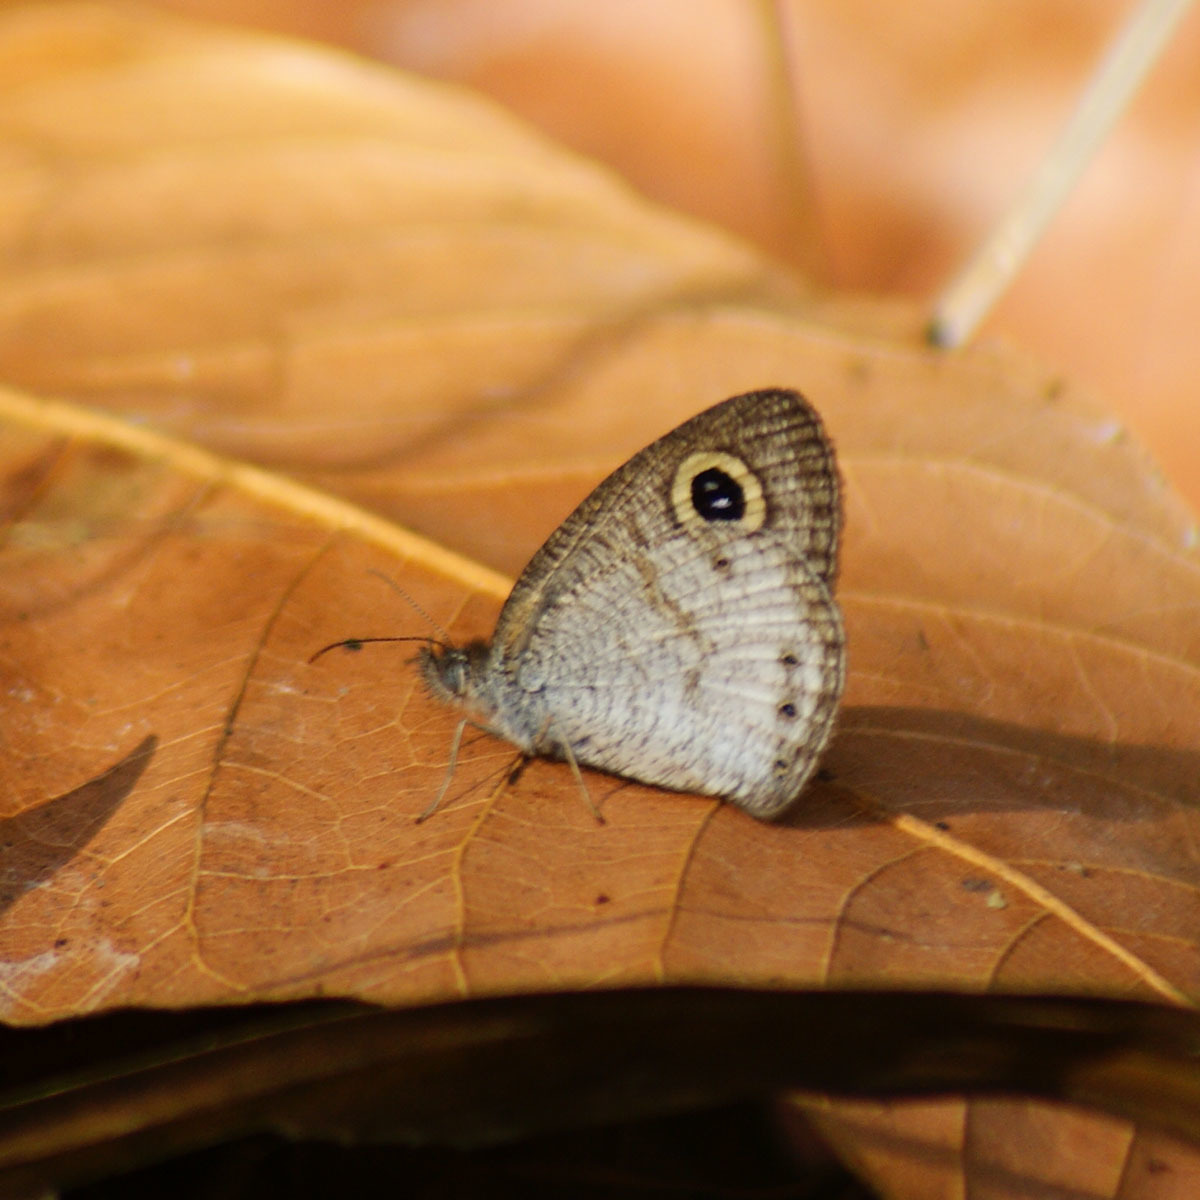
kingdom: Animalia
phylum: Arthropoda
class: Insecta
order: Lepidoptera
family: Nymphalidae
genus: Ypthima
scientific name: Ypthima huebneri
